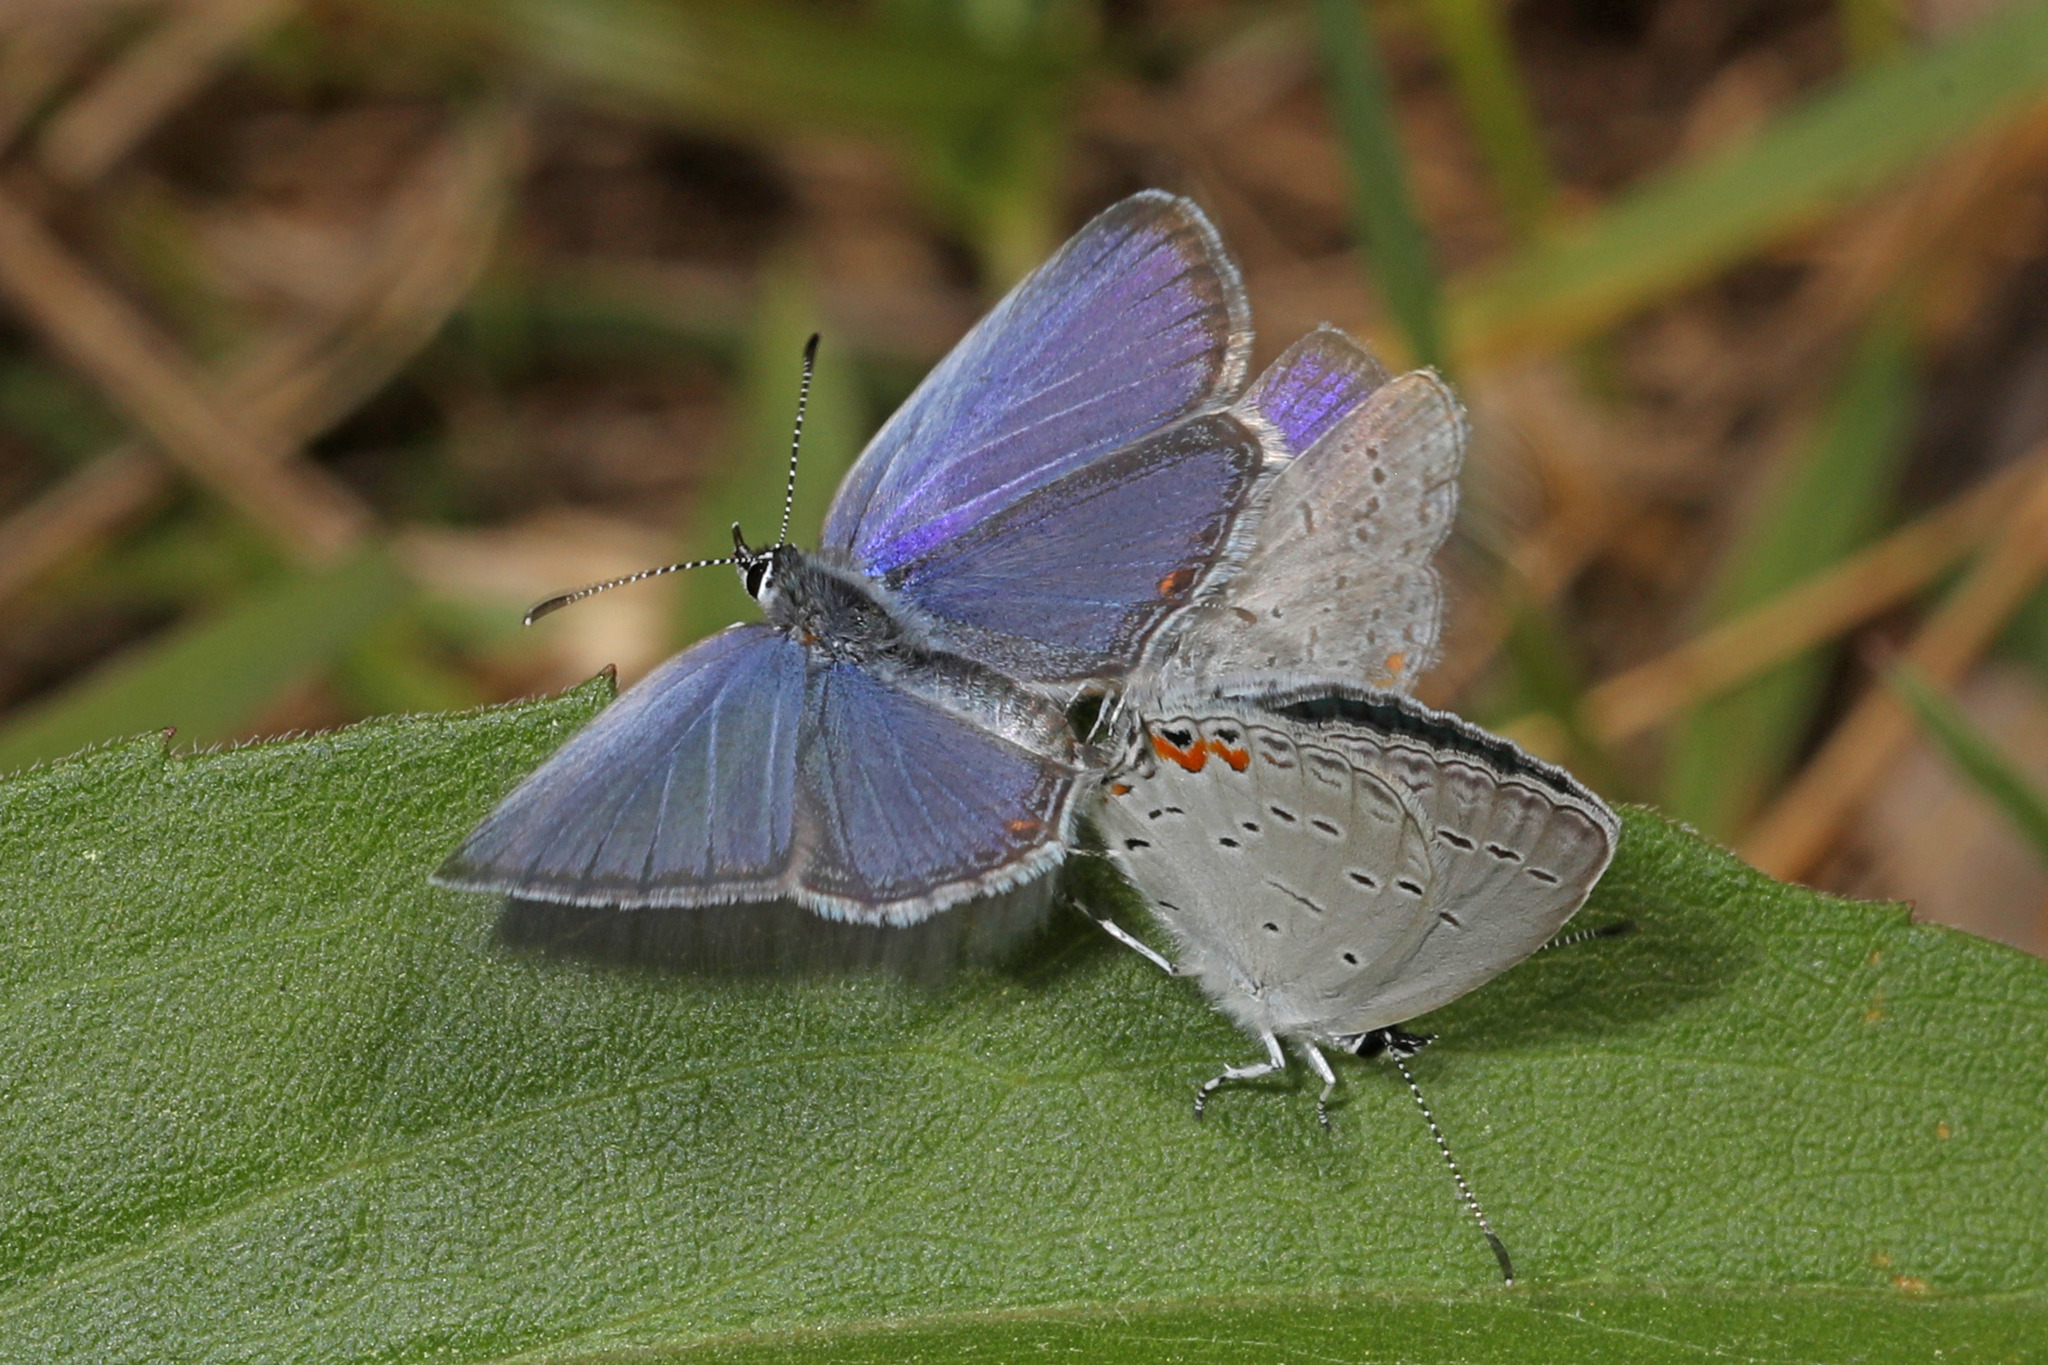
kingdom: Animalia
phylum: Arthropoda
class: Insecta
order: Lepidoptera
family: Lycaenidae
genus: Elkalyce
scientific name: Elkalyce comyntas
